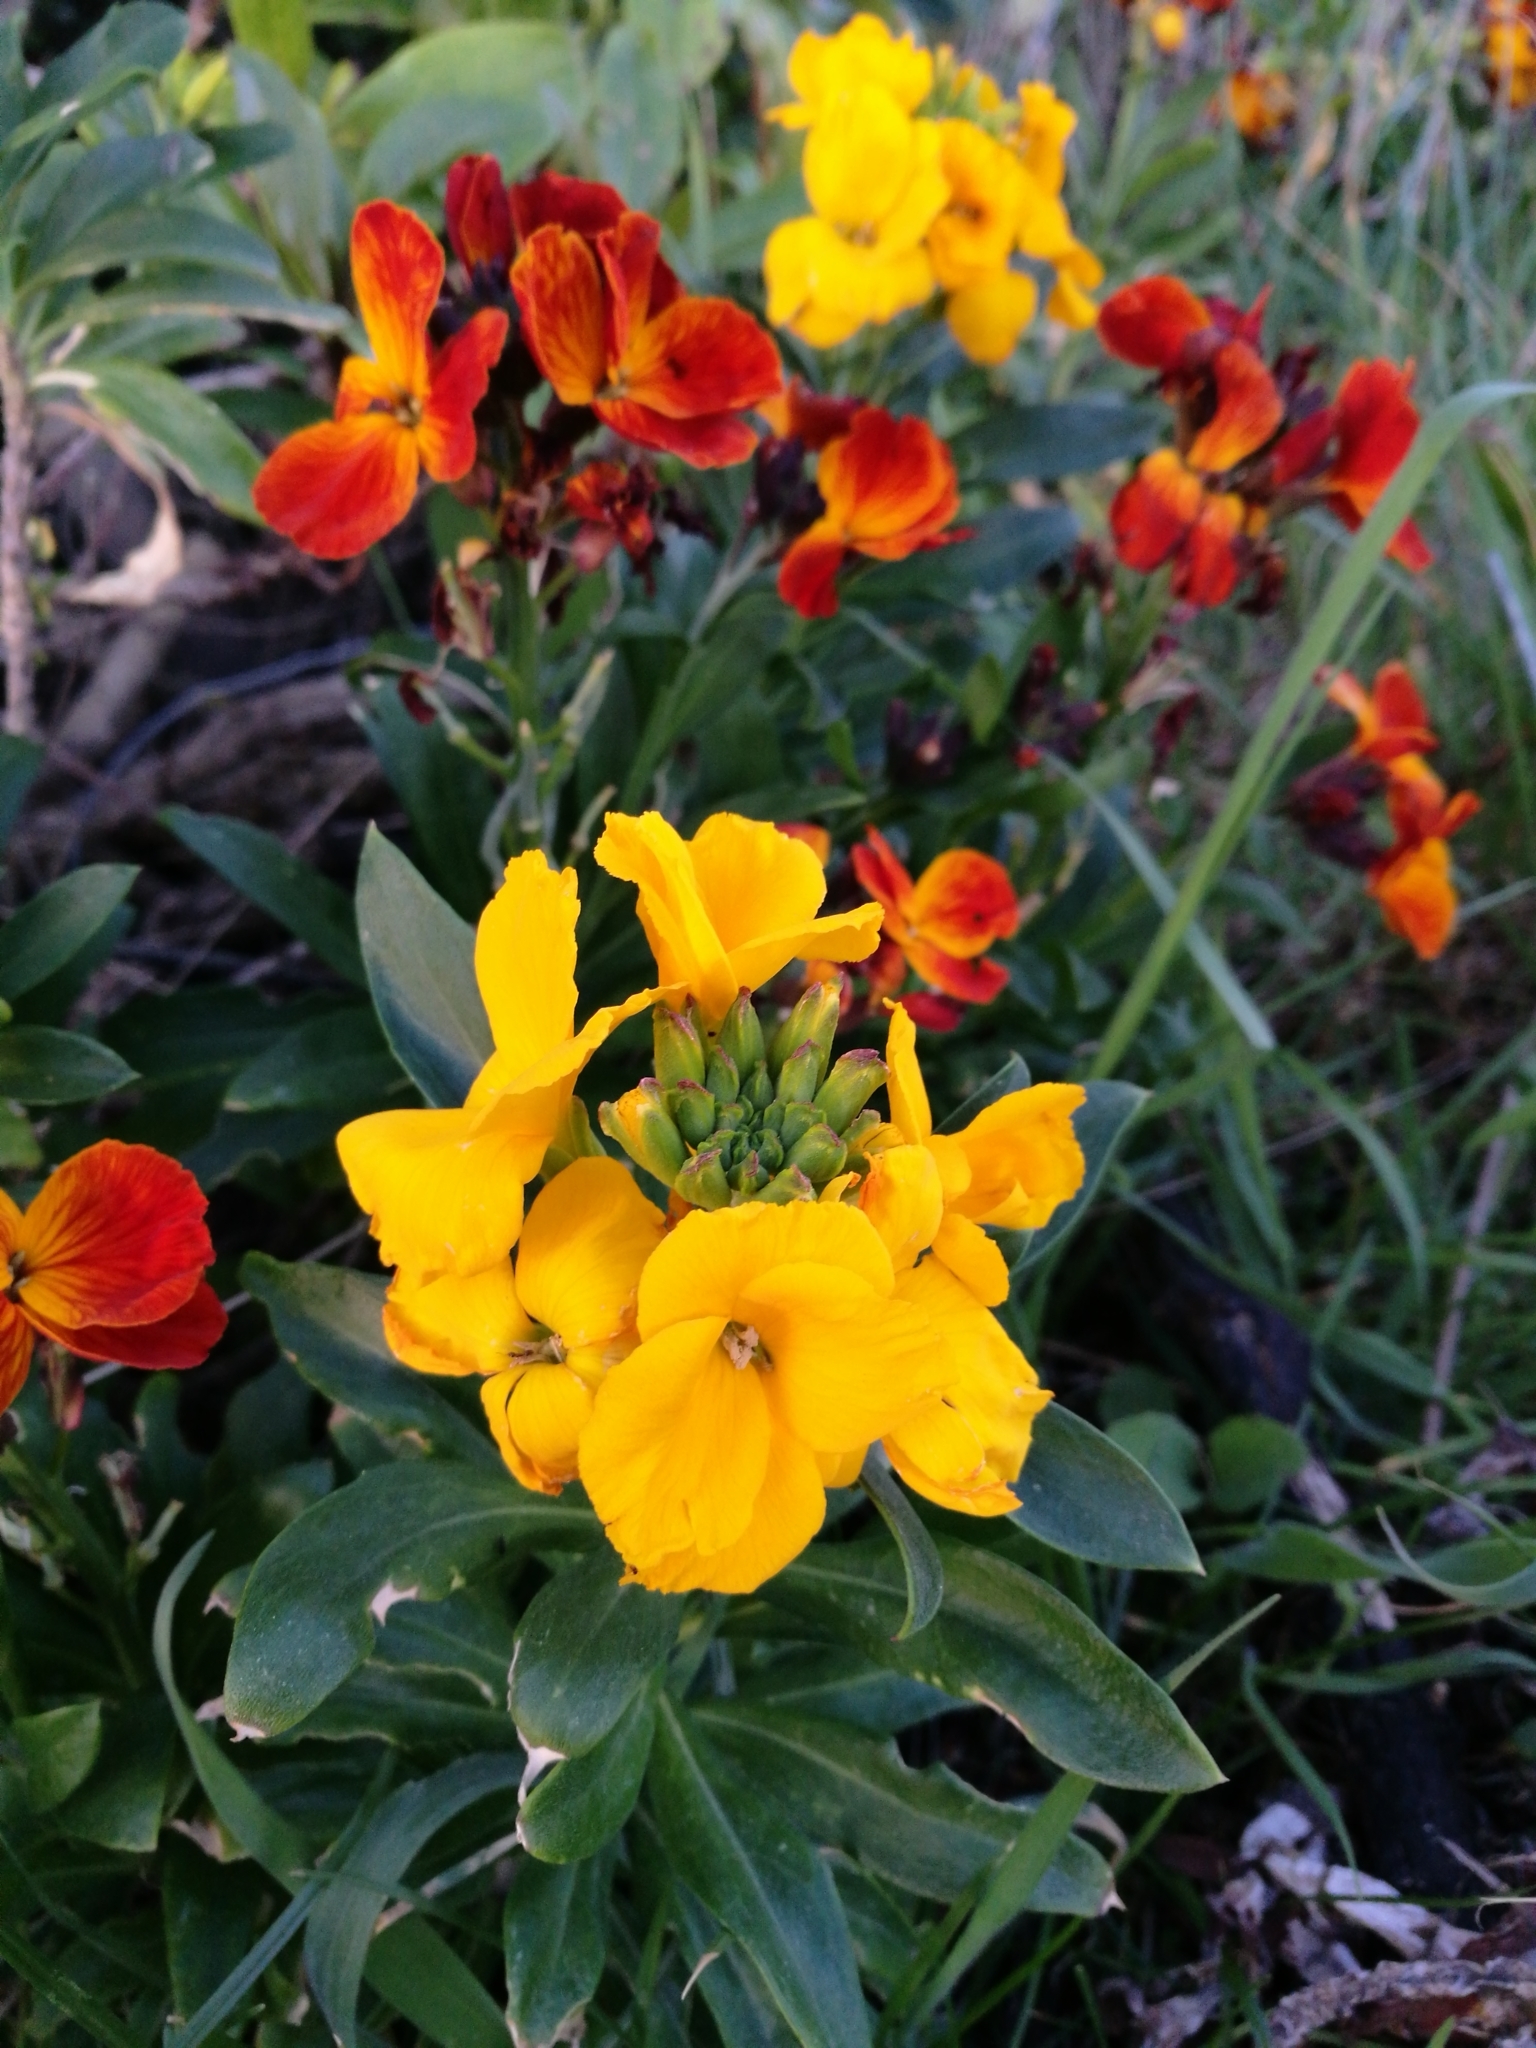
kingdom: Plantae
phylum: Tracheophyta
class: Magnoliopsida
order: Brassicales
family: Brassicaceae
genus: Erysimum
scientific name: Erysimum cheiri
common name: Wallflower
